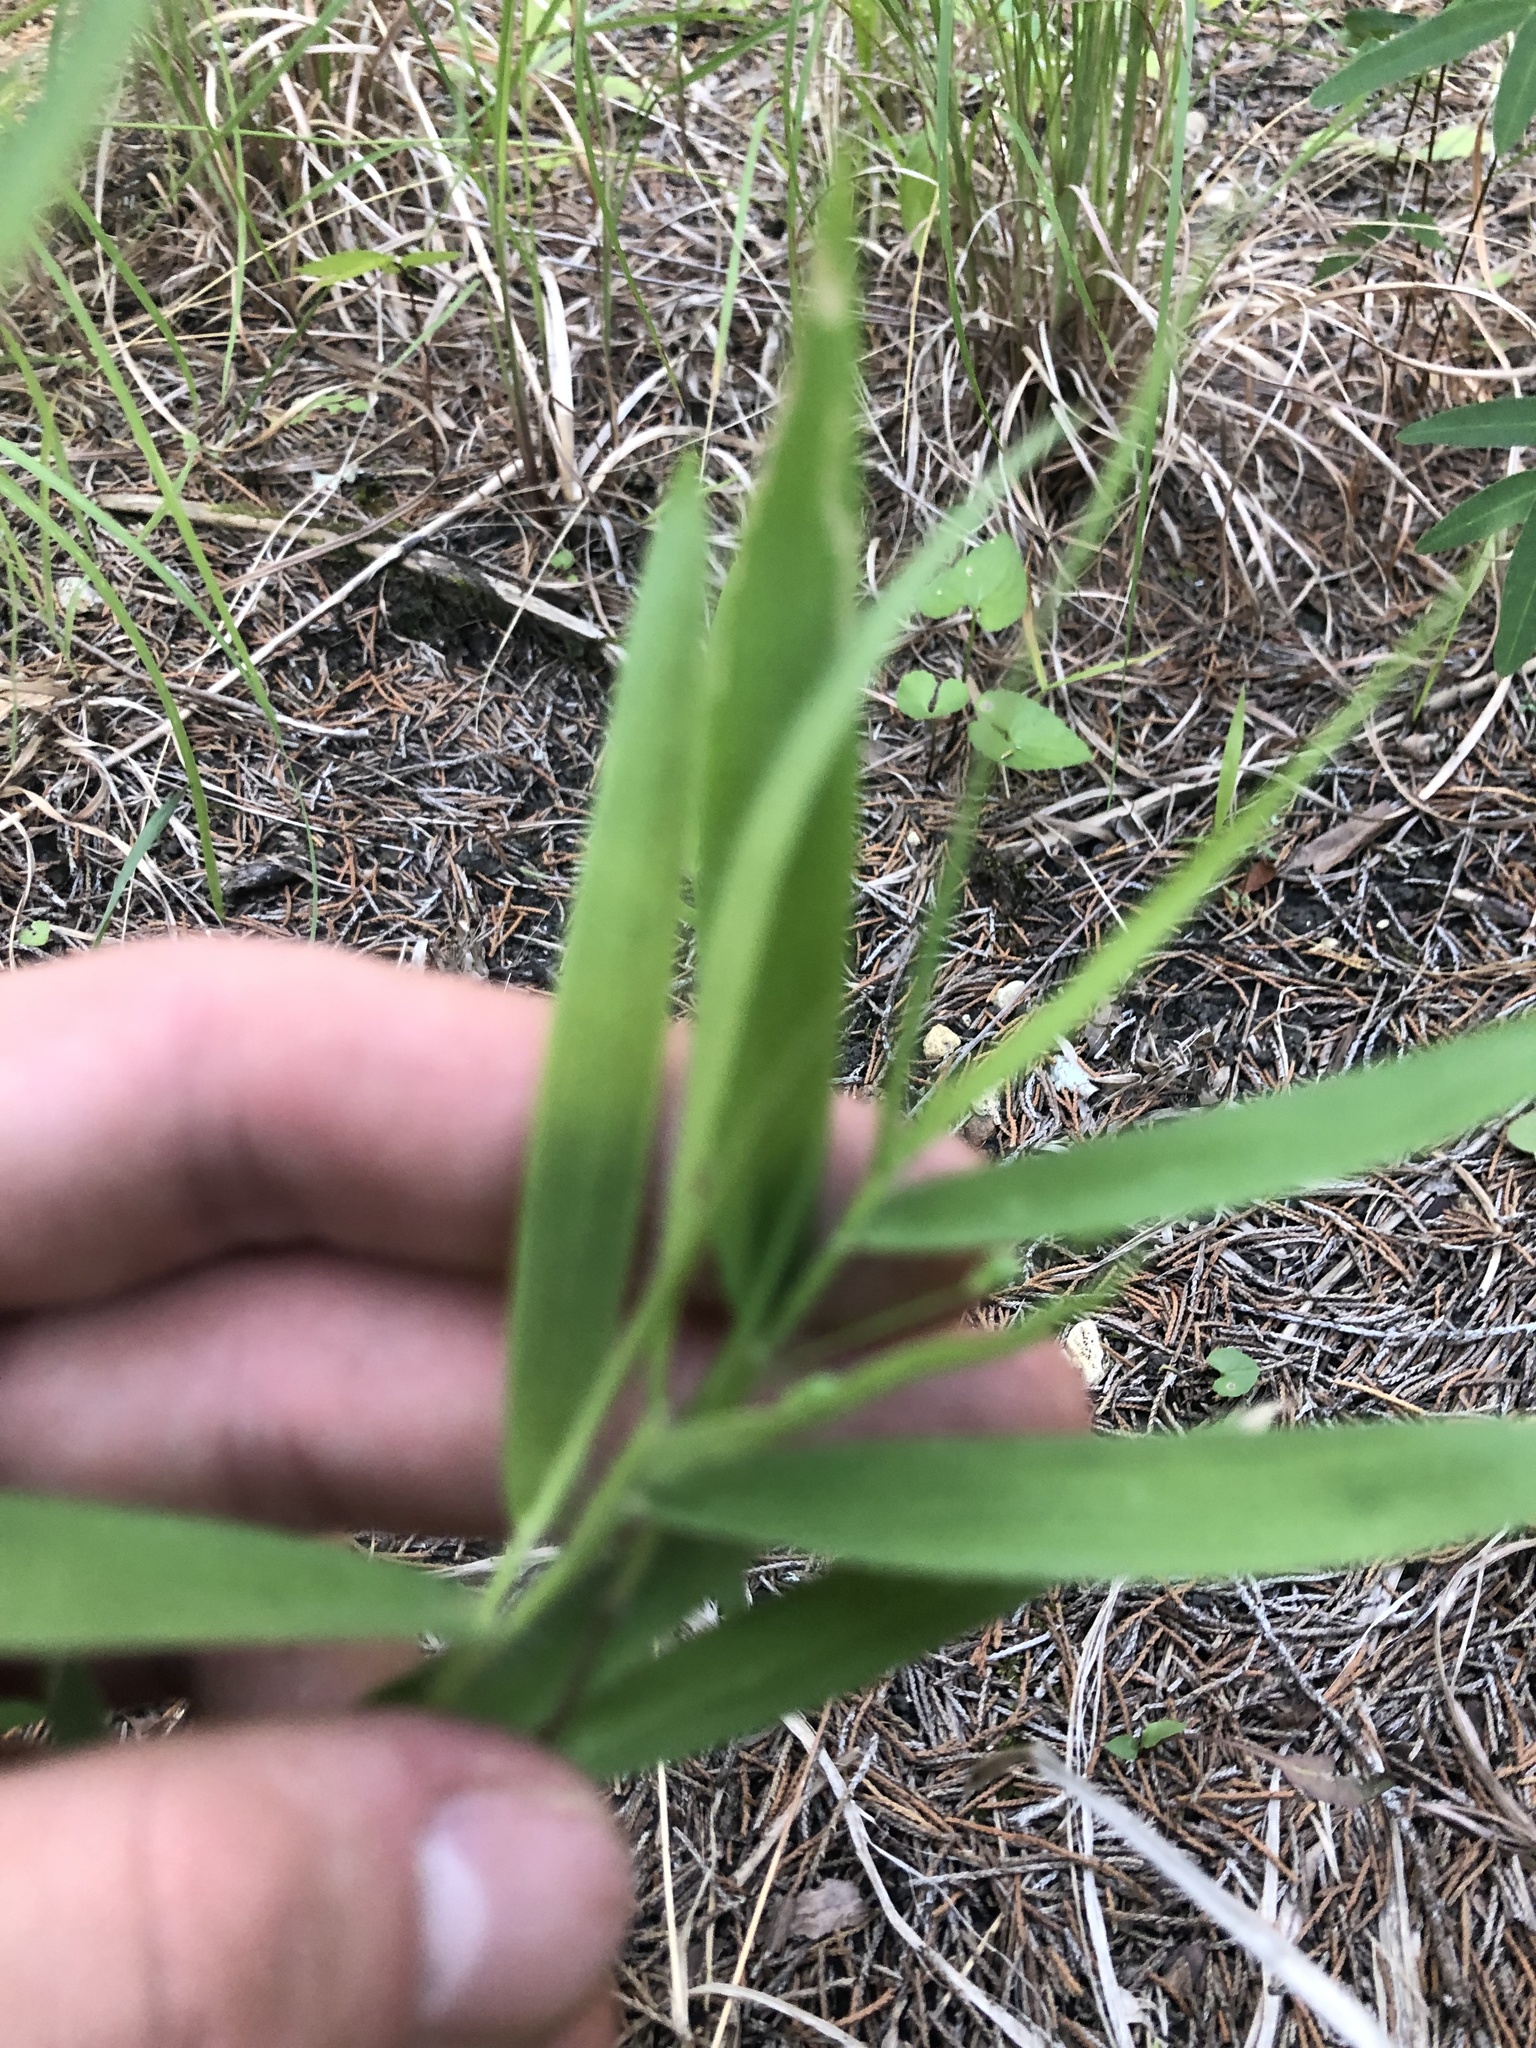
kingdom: Plantae
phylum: Tracheophyta
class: Liliopsida
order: Poales
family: Poaceae
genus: Dichanthelium
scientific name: Dichanthelium scribnerianum
